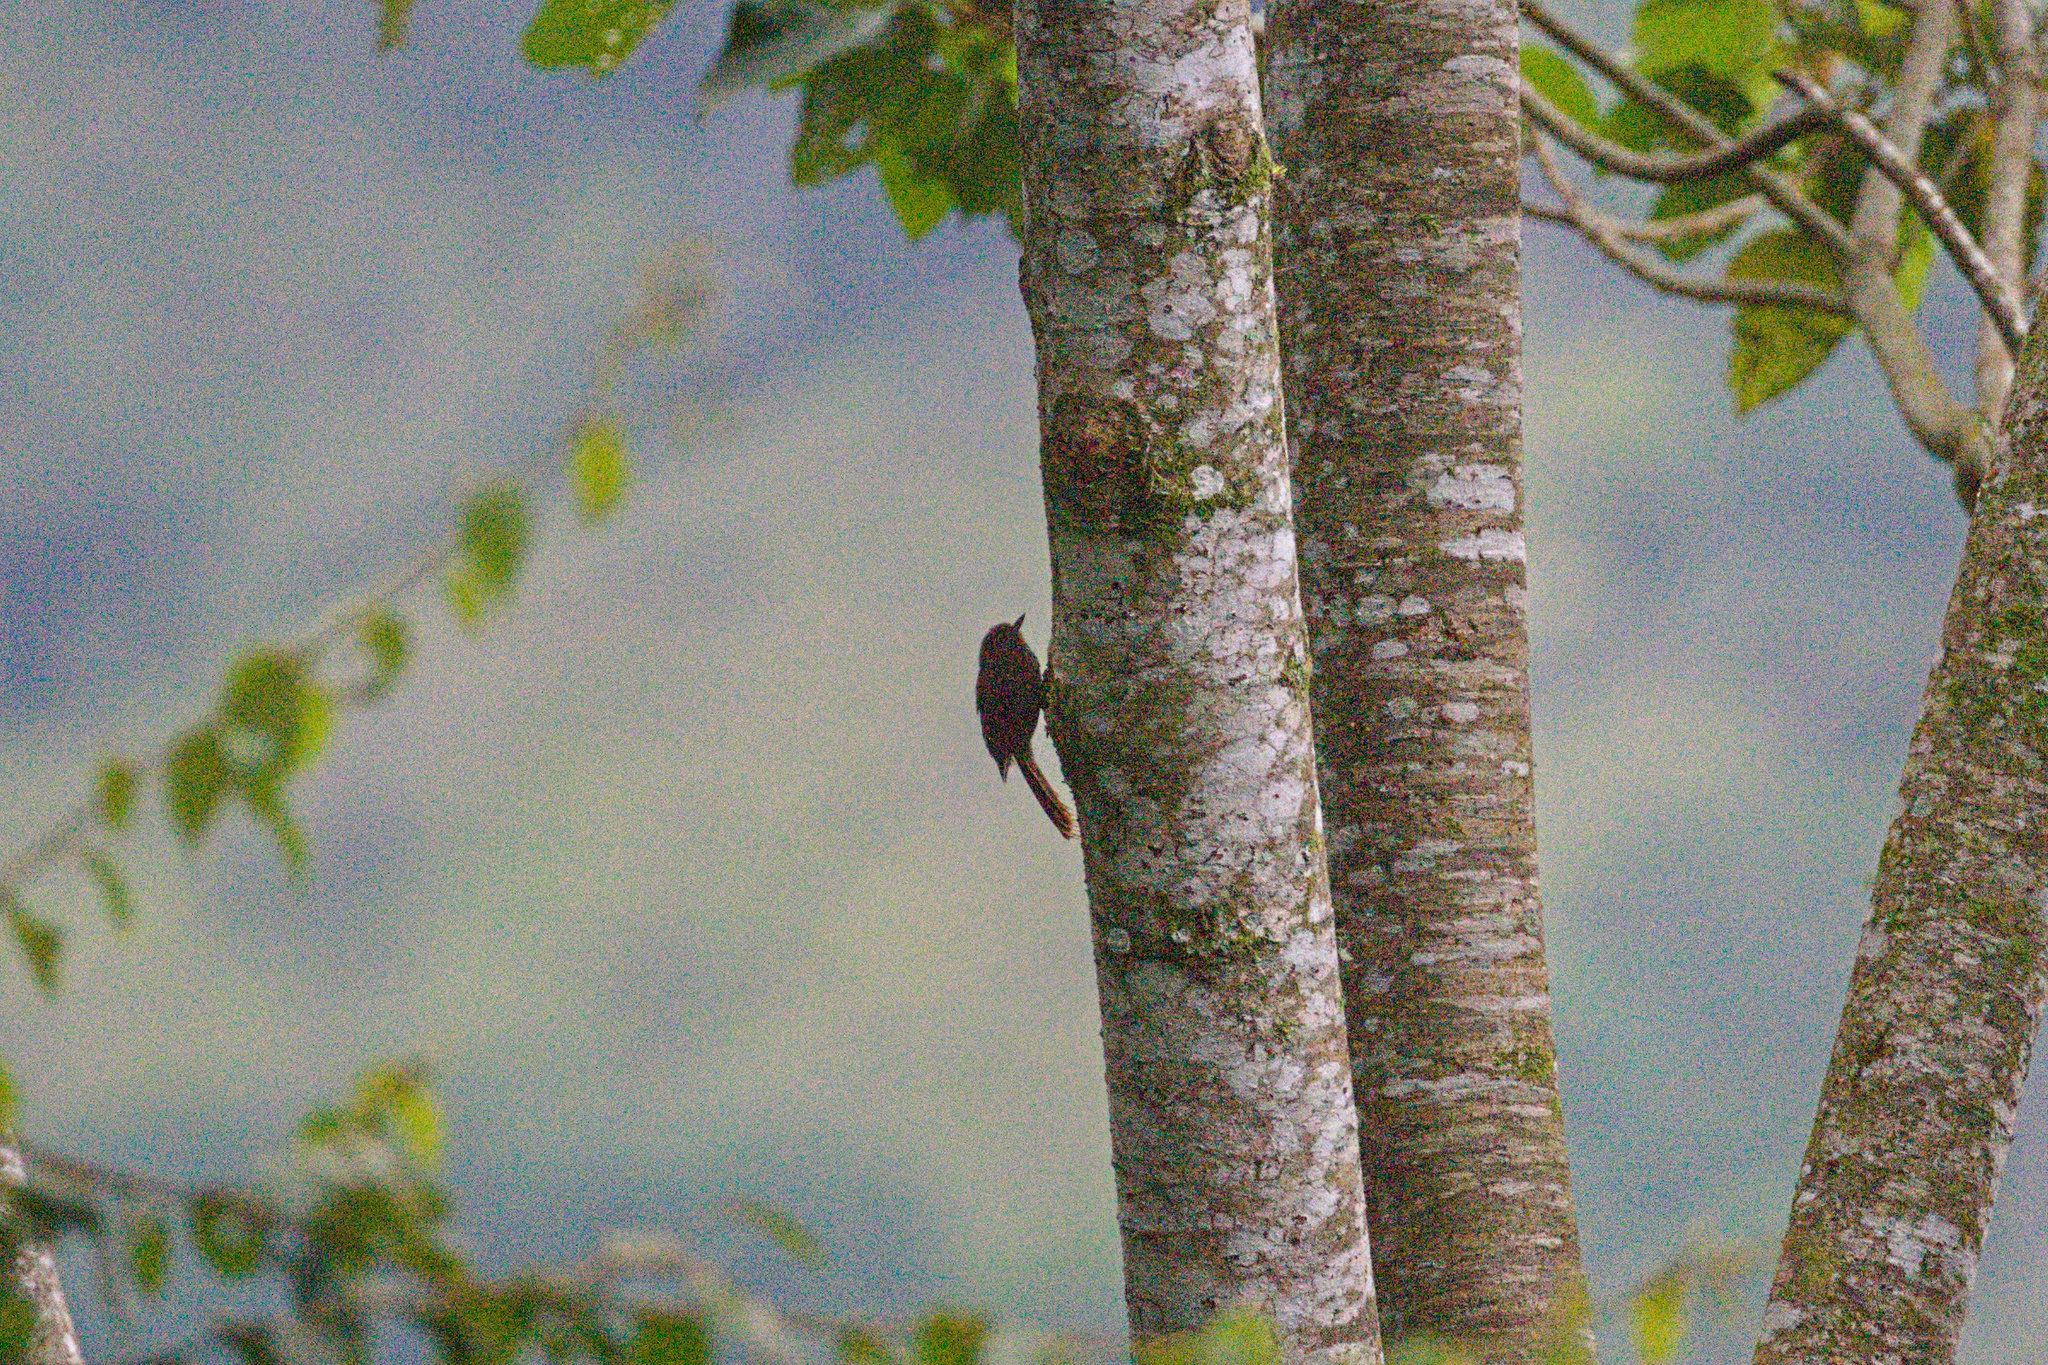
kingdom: Animalia
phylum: Chordata
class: Aves
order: Passeriformes
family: Furnariidae
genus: Glyphorynchus
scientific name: Glyphorynchus spirurus
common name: Wedge-billed woodcreeper
